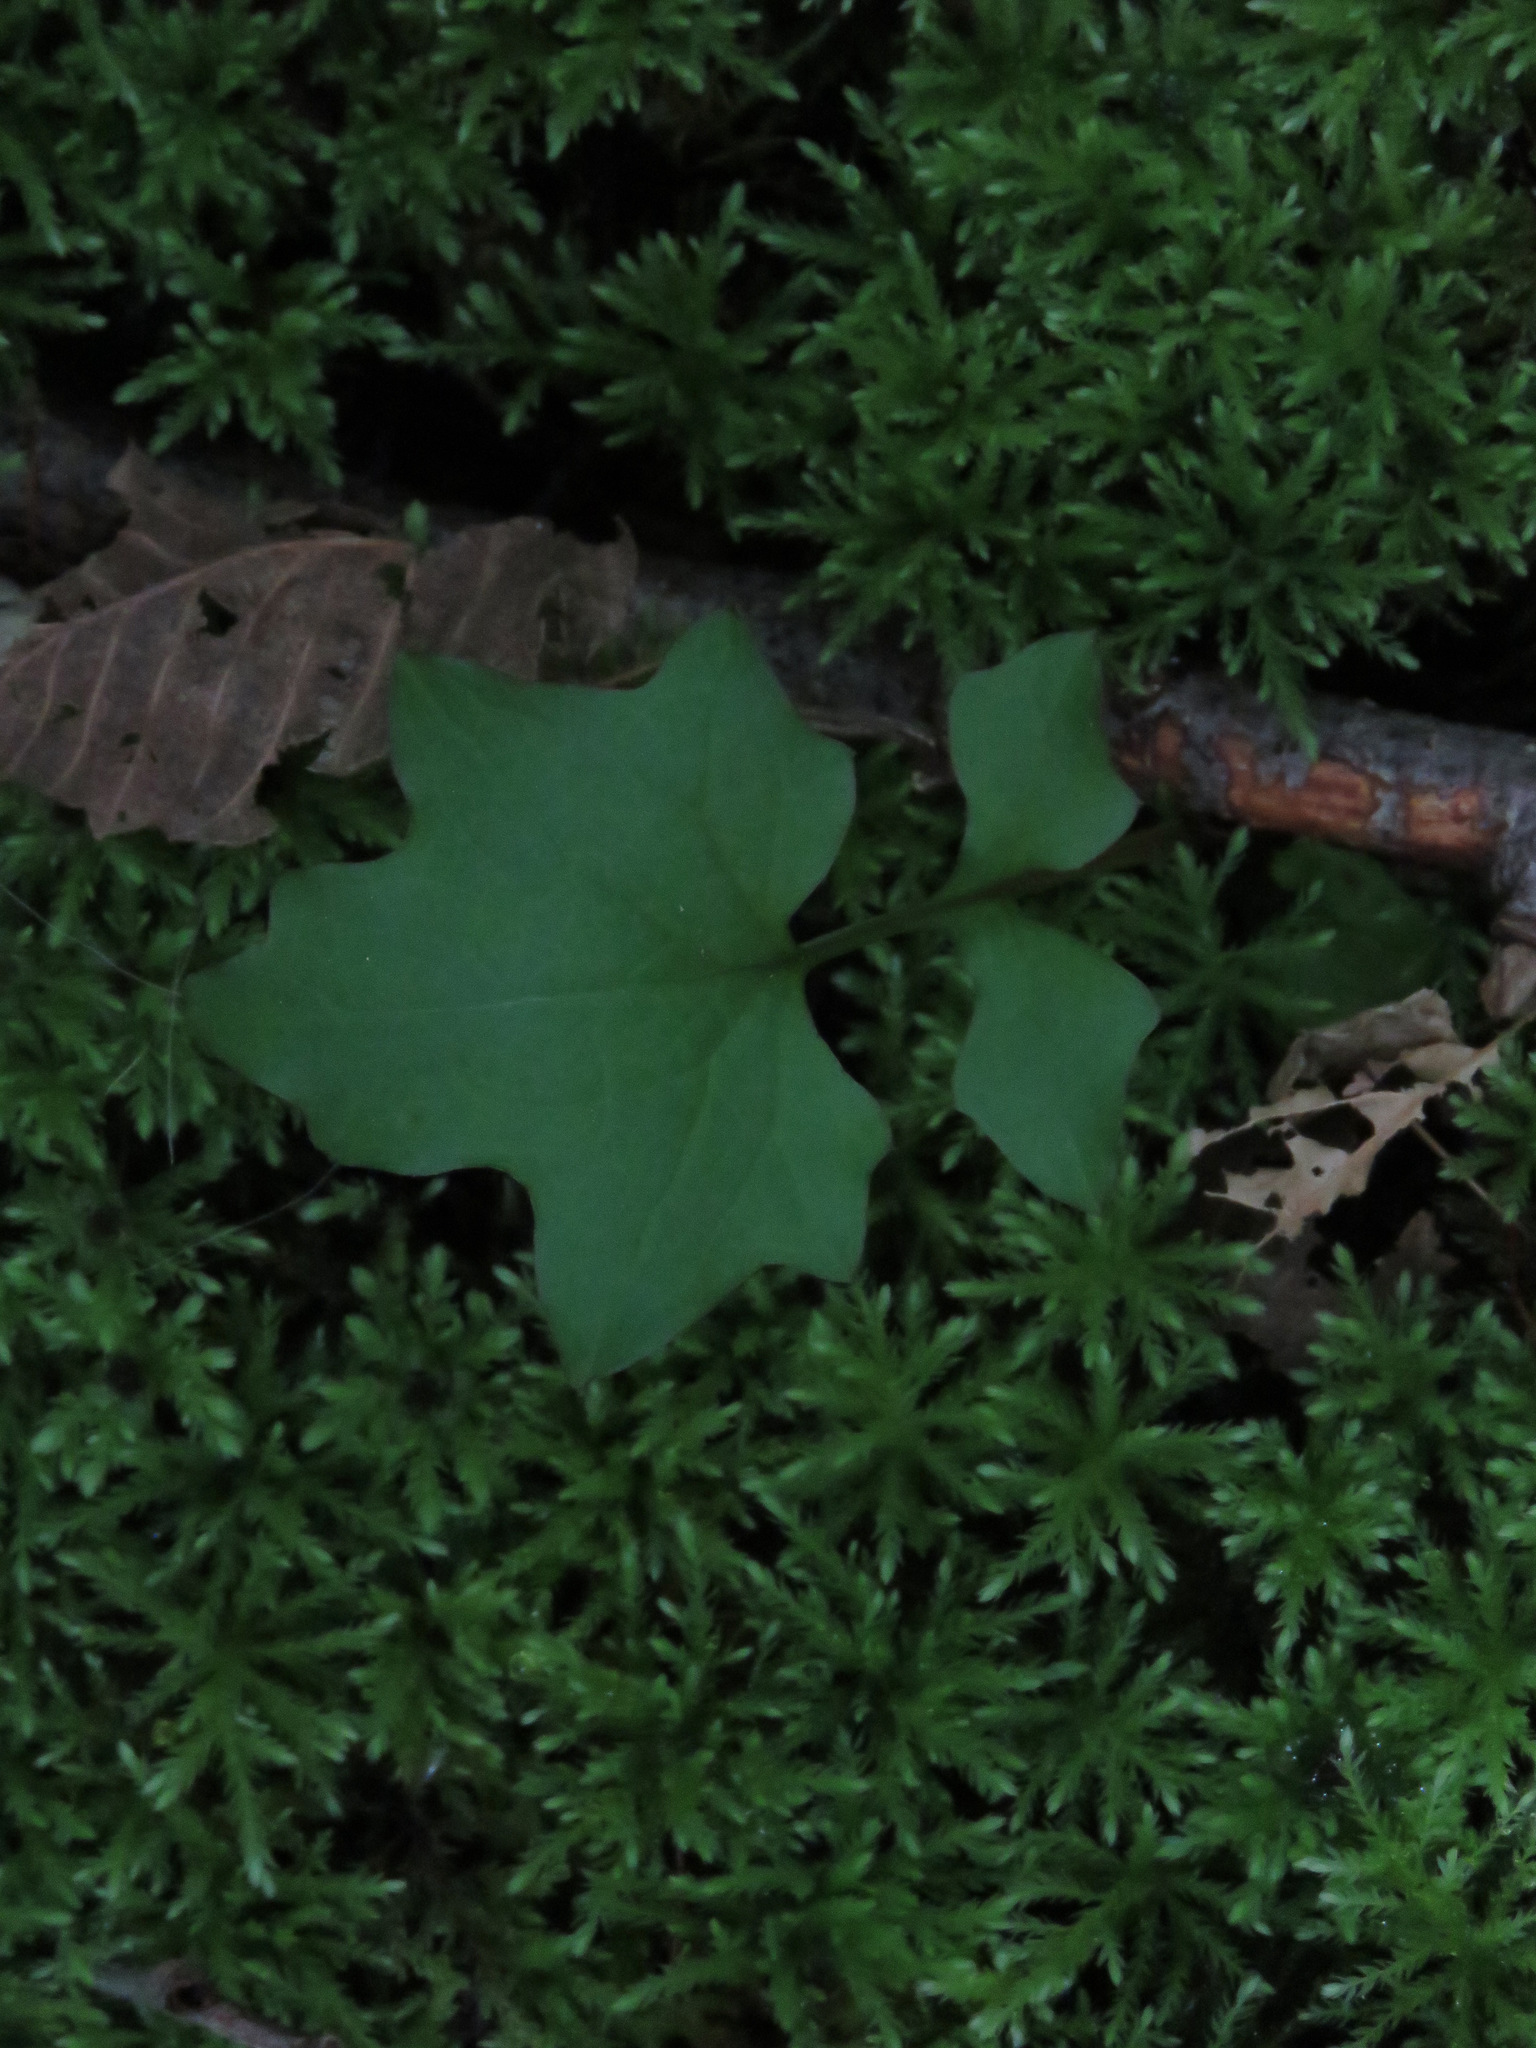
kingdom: Plantae
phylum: Tracheophyta
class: Magnoliopsida
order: Asterales
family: Asteraceae
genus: Mycelis
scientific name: Mycelis muralis
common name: Wall lettuce
